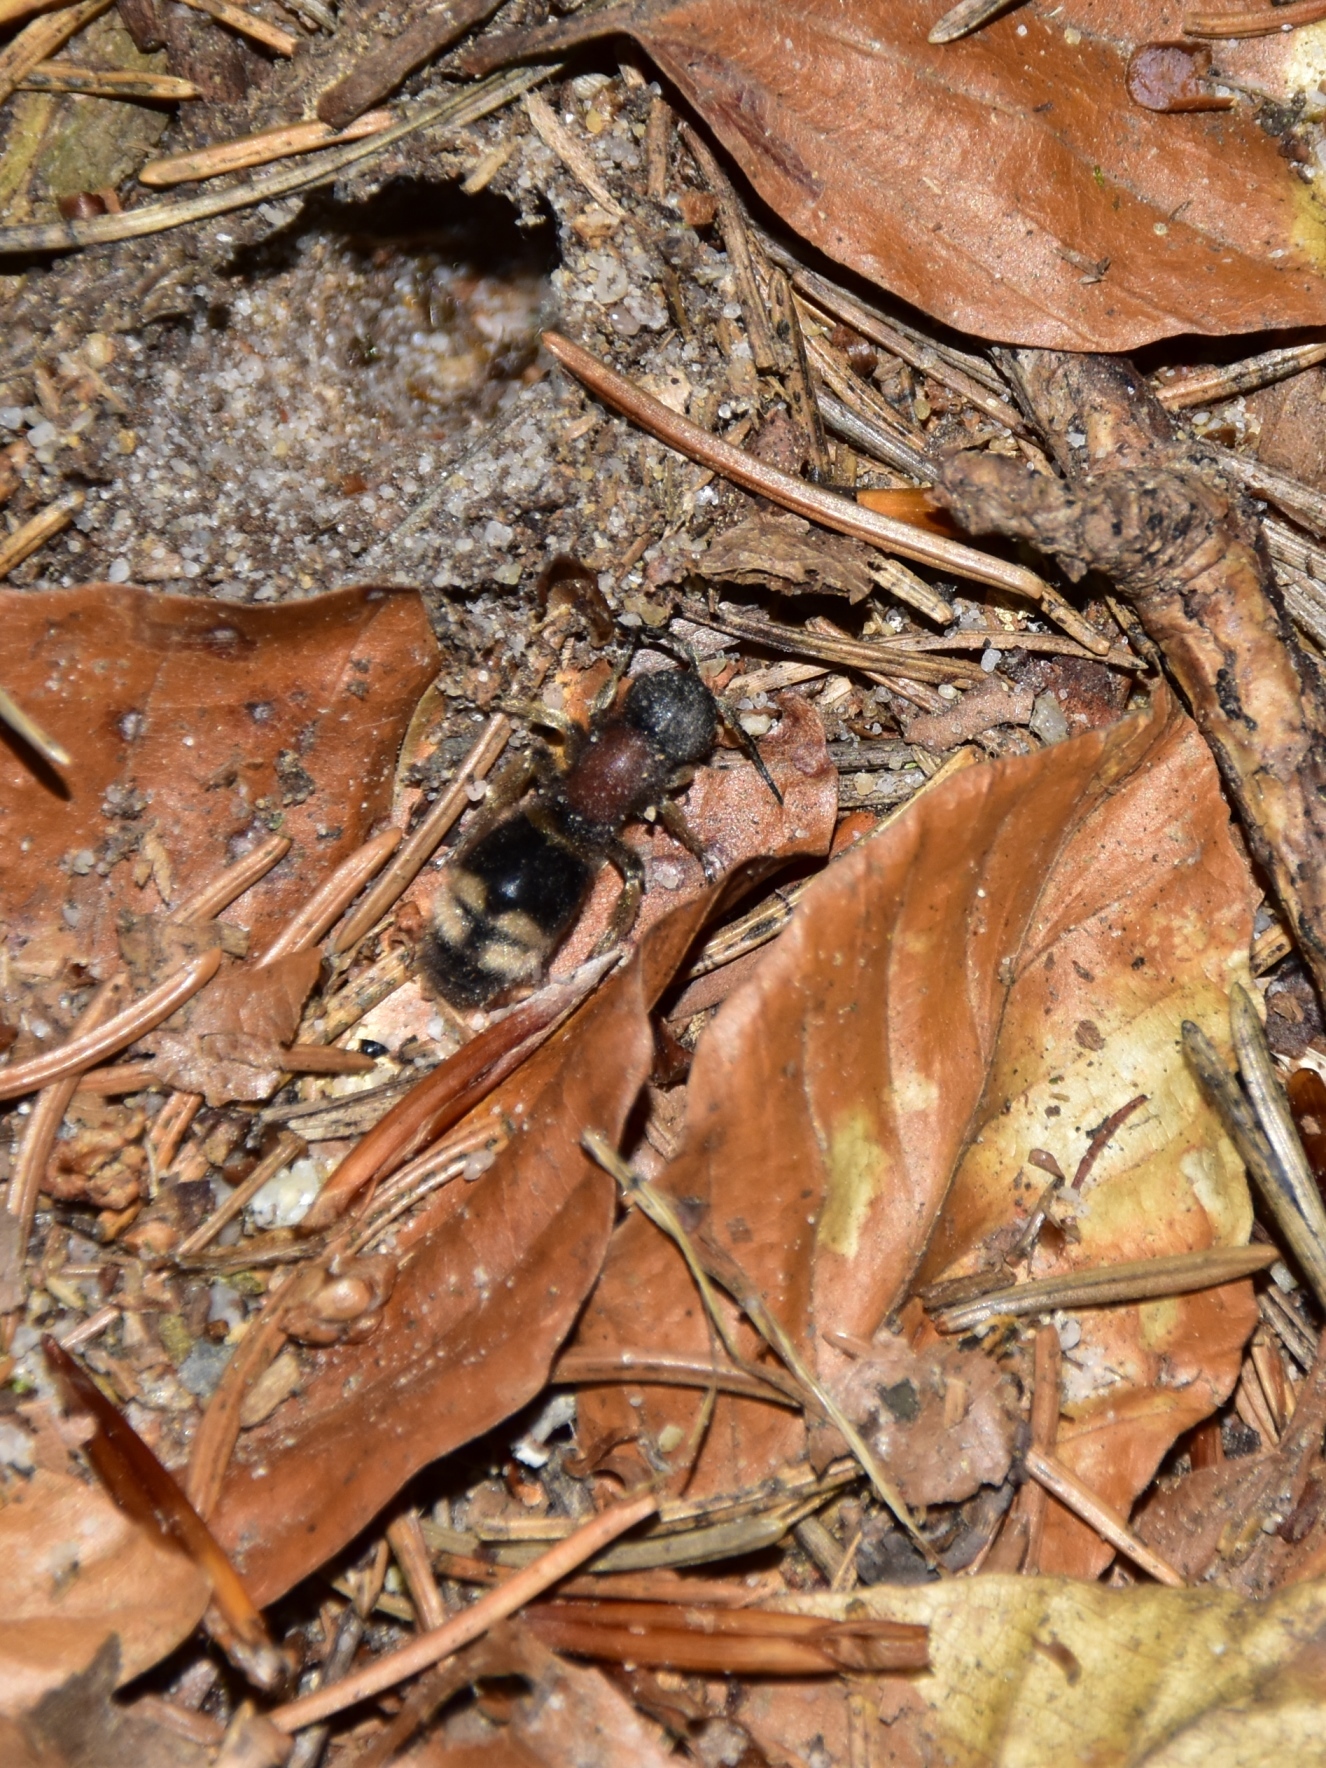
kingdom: Animalia
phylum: Arthropoda
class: Insecta
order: Hymenoptera
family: Mutillidae
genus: Mutilla
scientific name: Mutilla marginata
